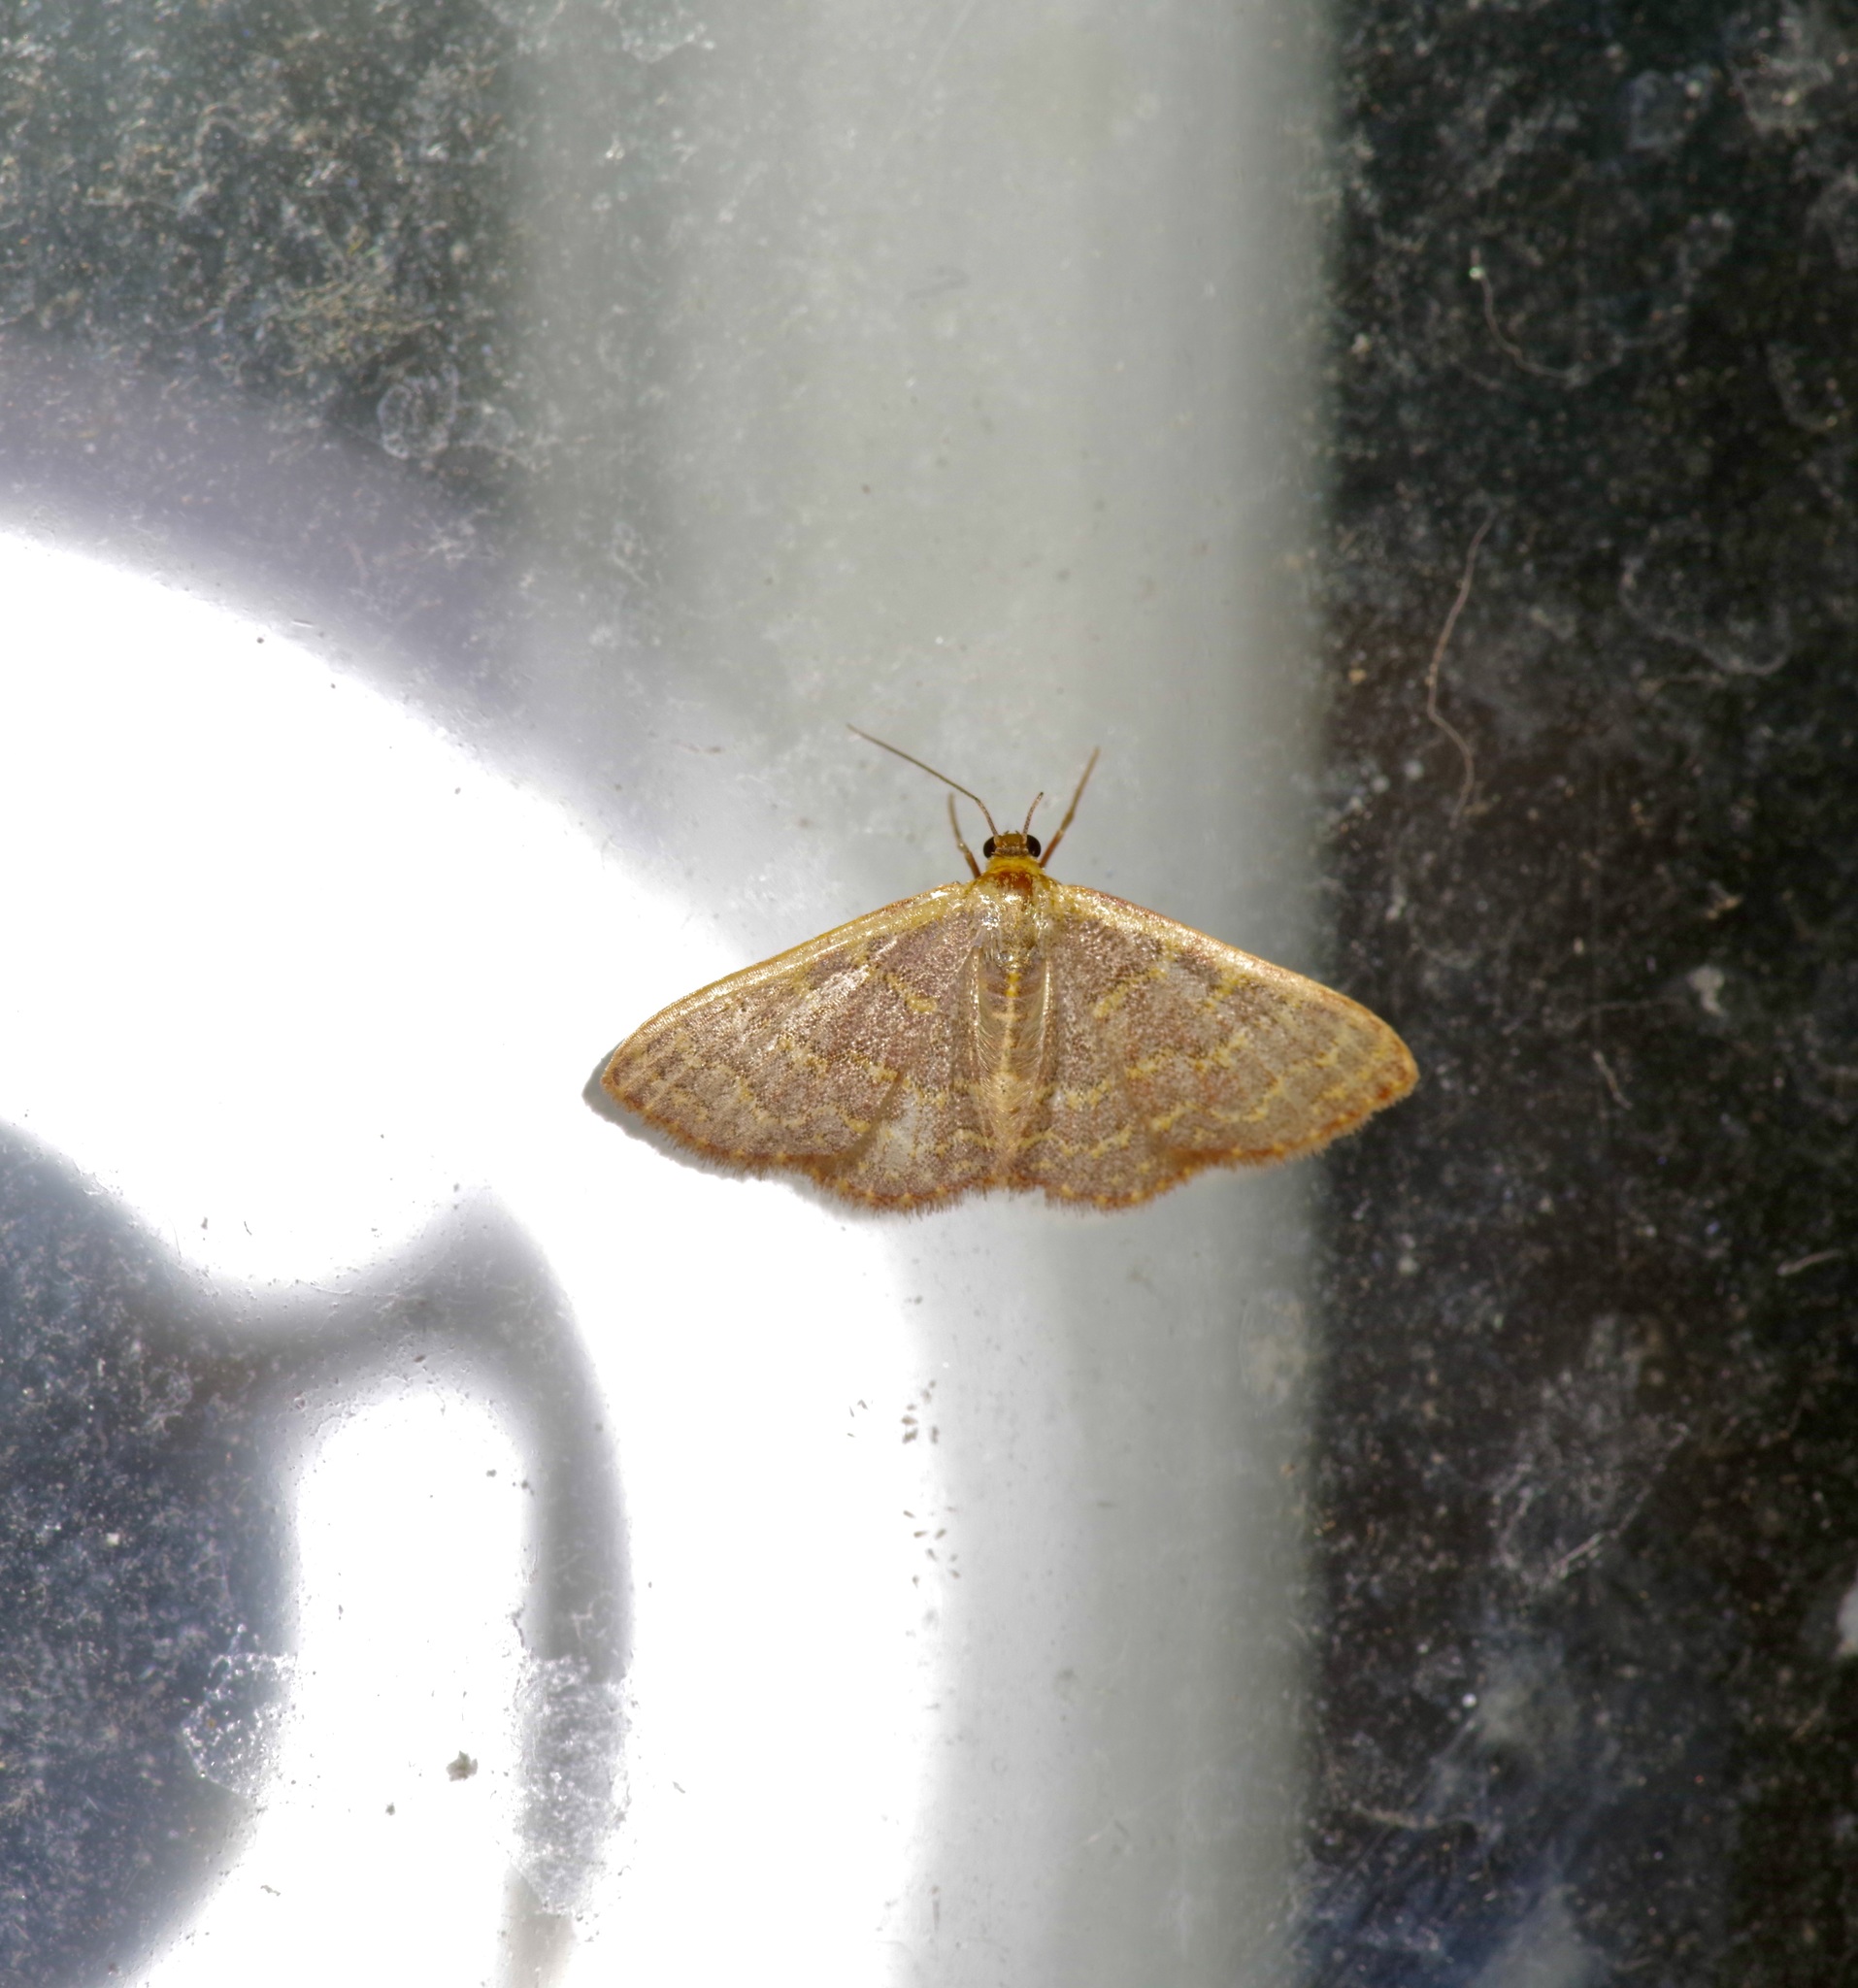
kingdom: Animalia
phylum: Arthropoda
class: Insecta
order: Lepidoptera
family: Geometridae
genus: Leptostales
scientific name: Leptostales pannaria
